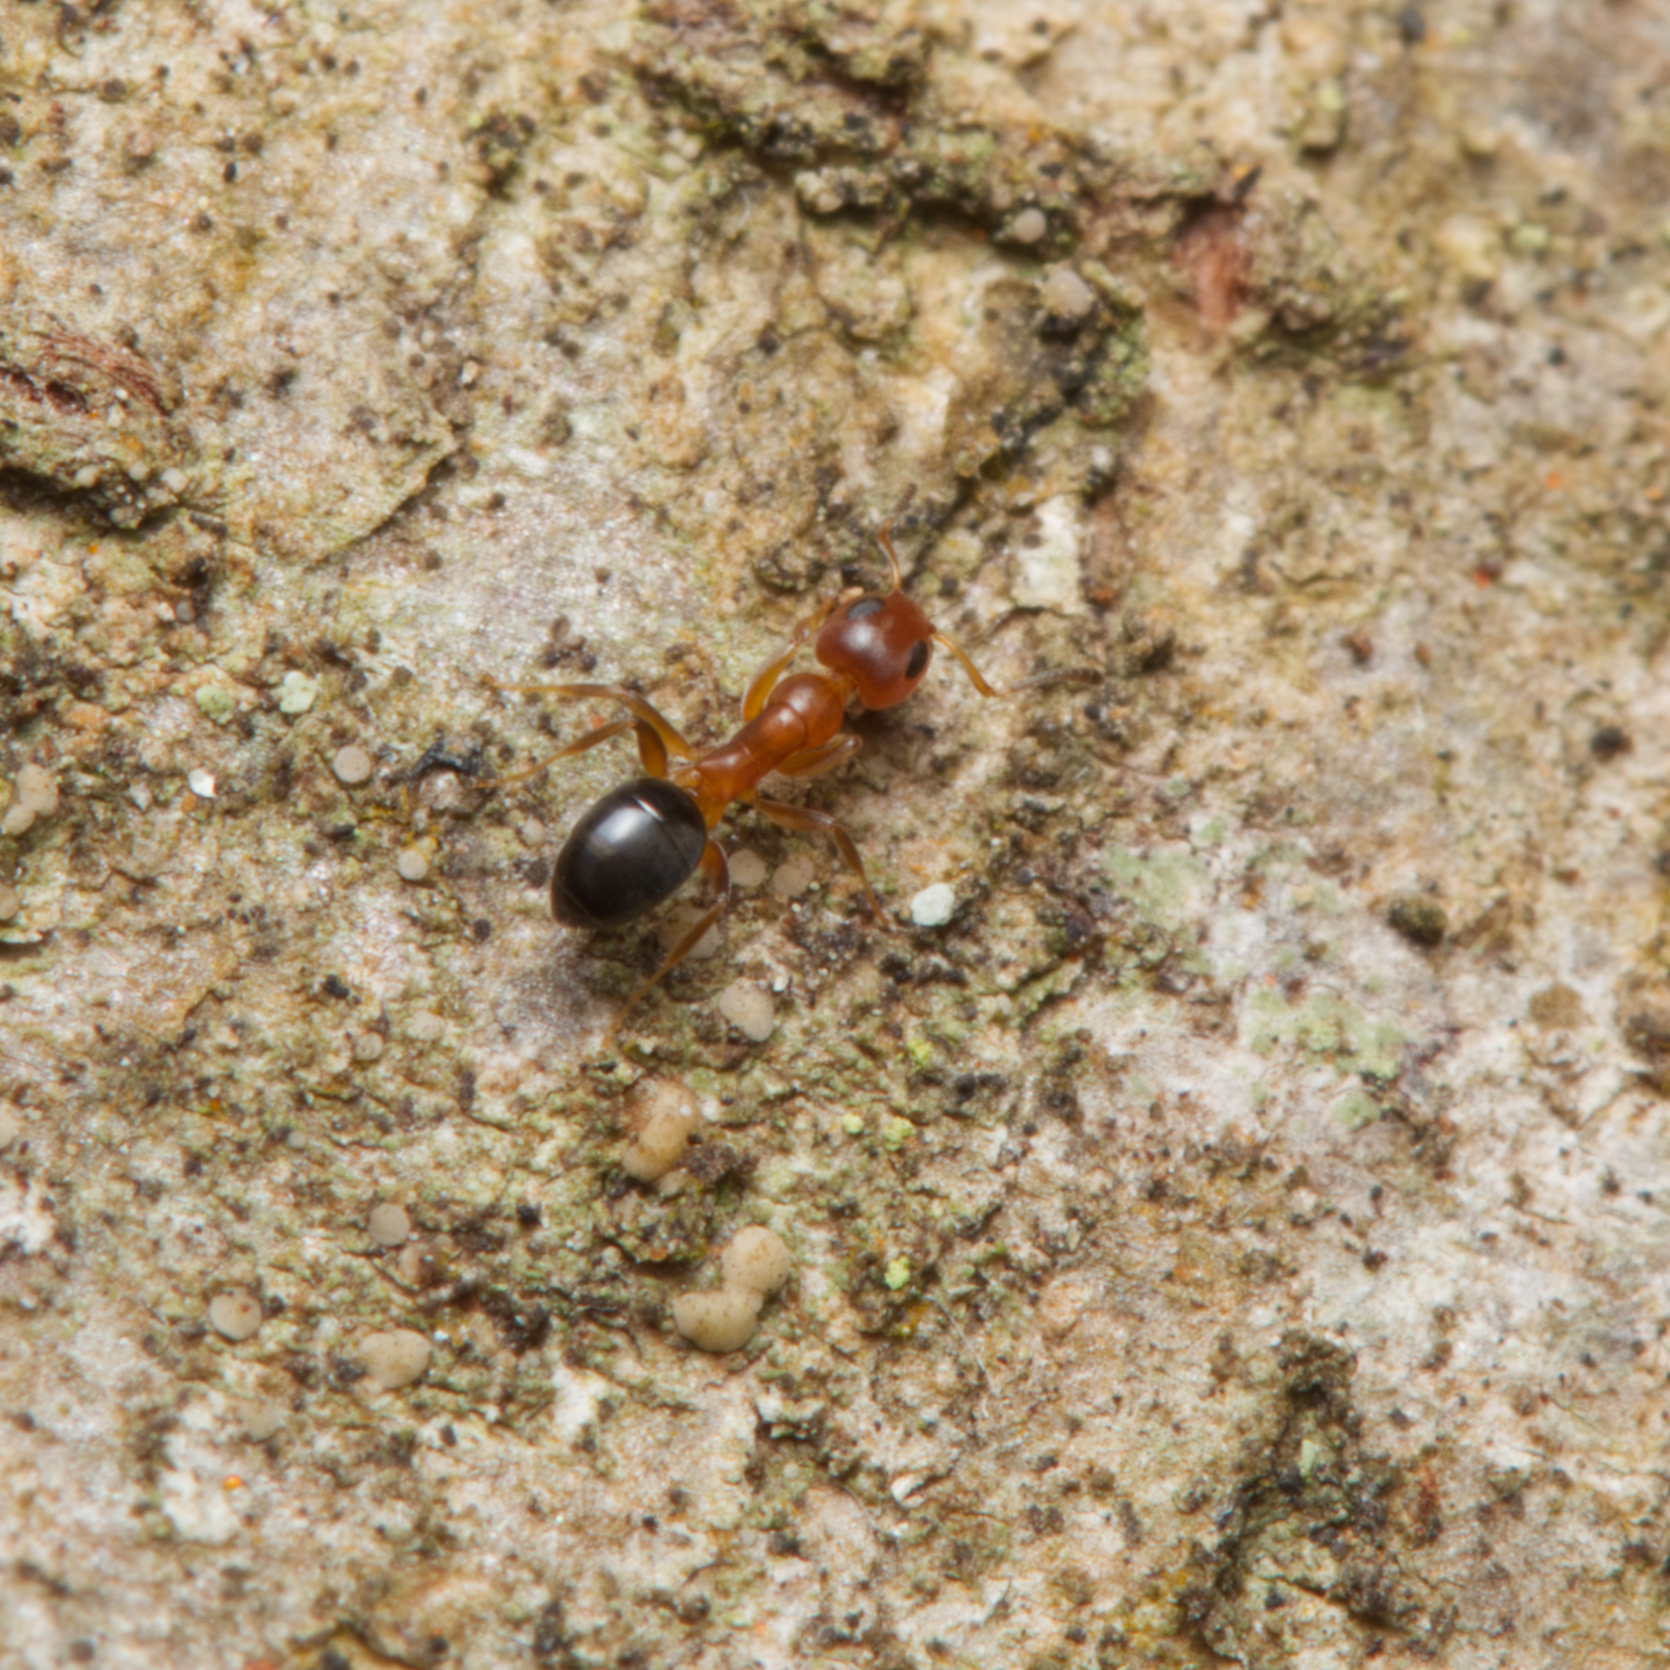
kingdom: Animalia
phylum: Arthropoda
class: Insecta
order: Hymenoptera
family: Formicidae
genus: Turneria
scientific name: Turneria bidentata
